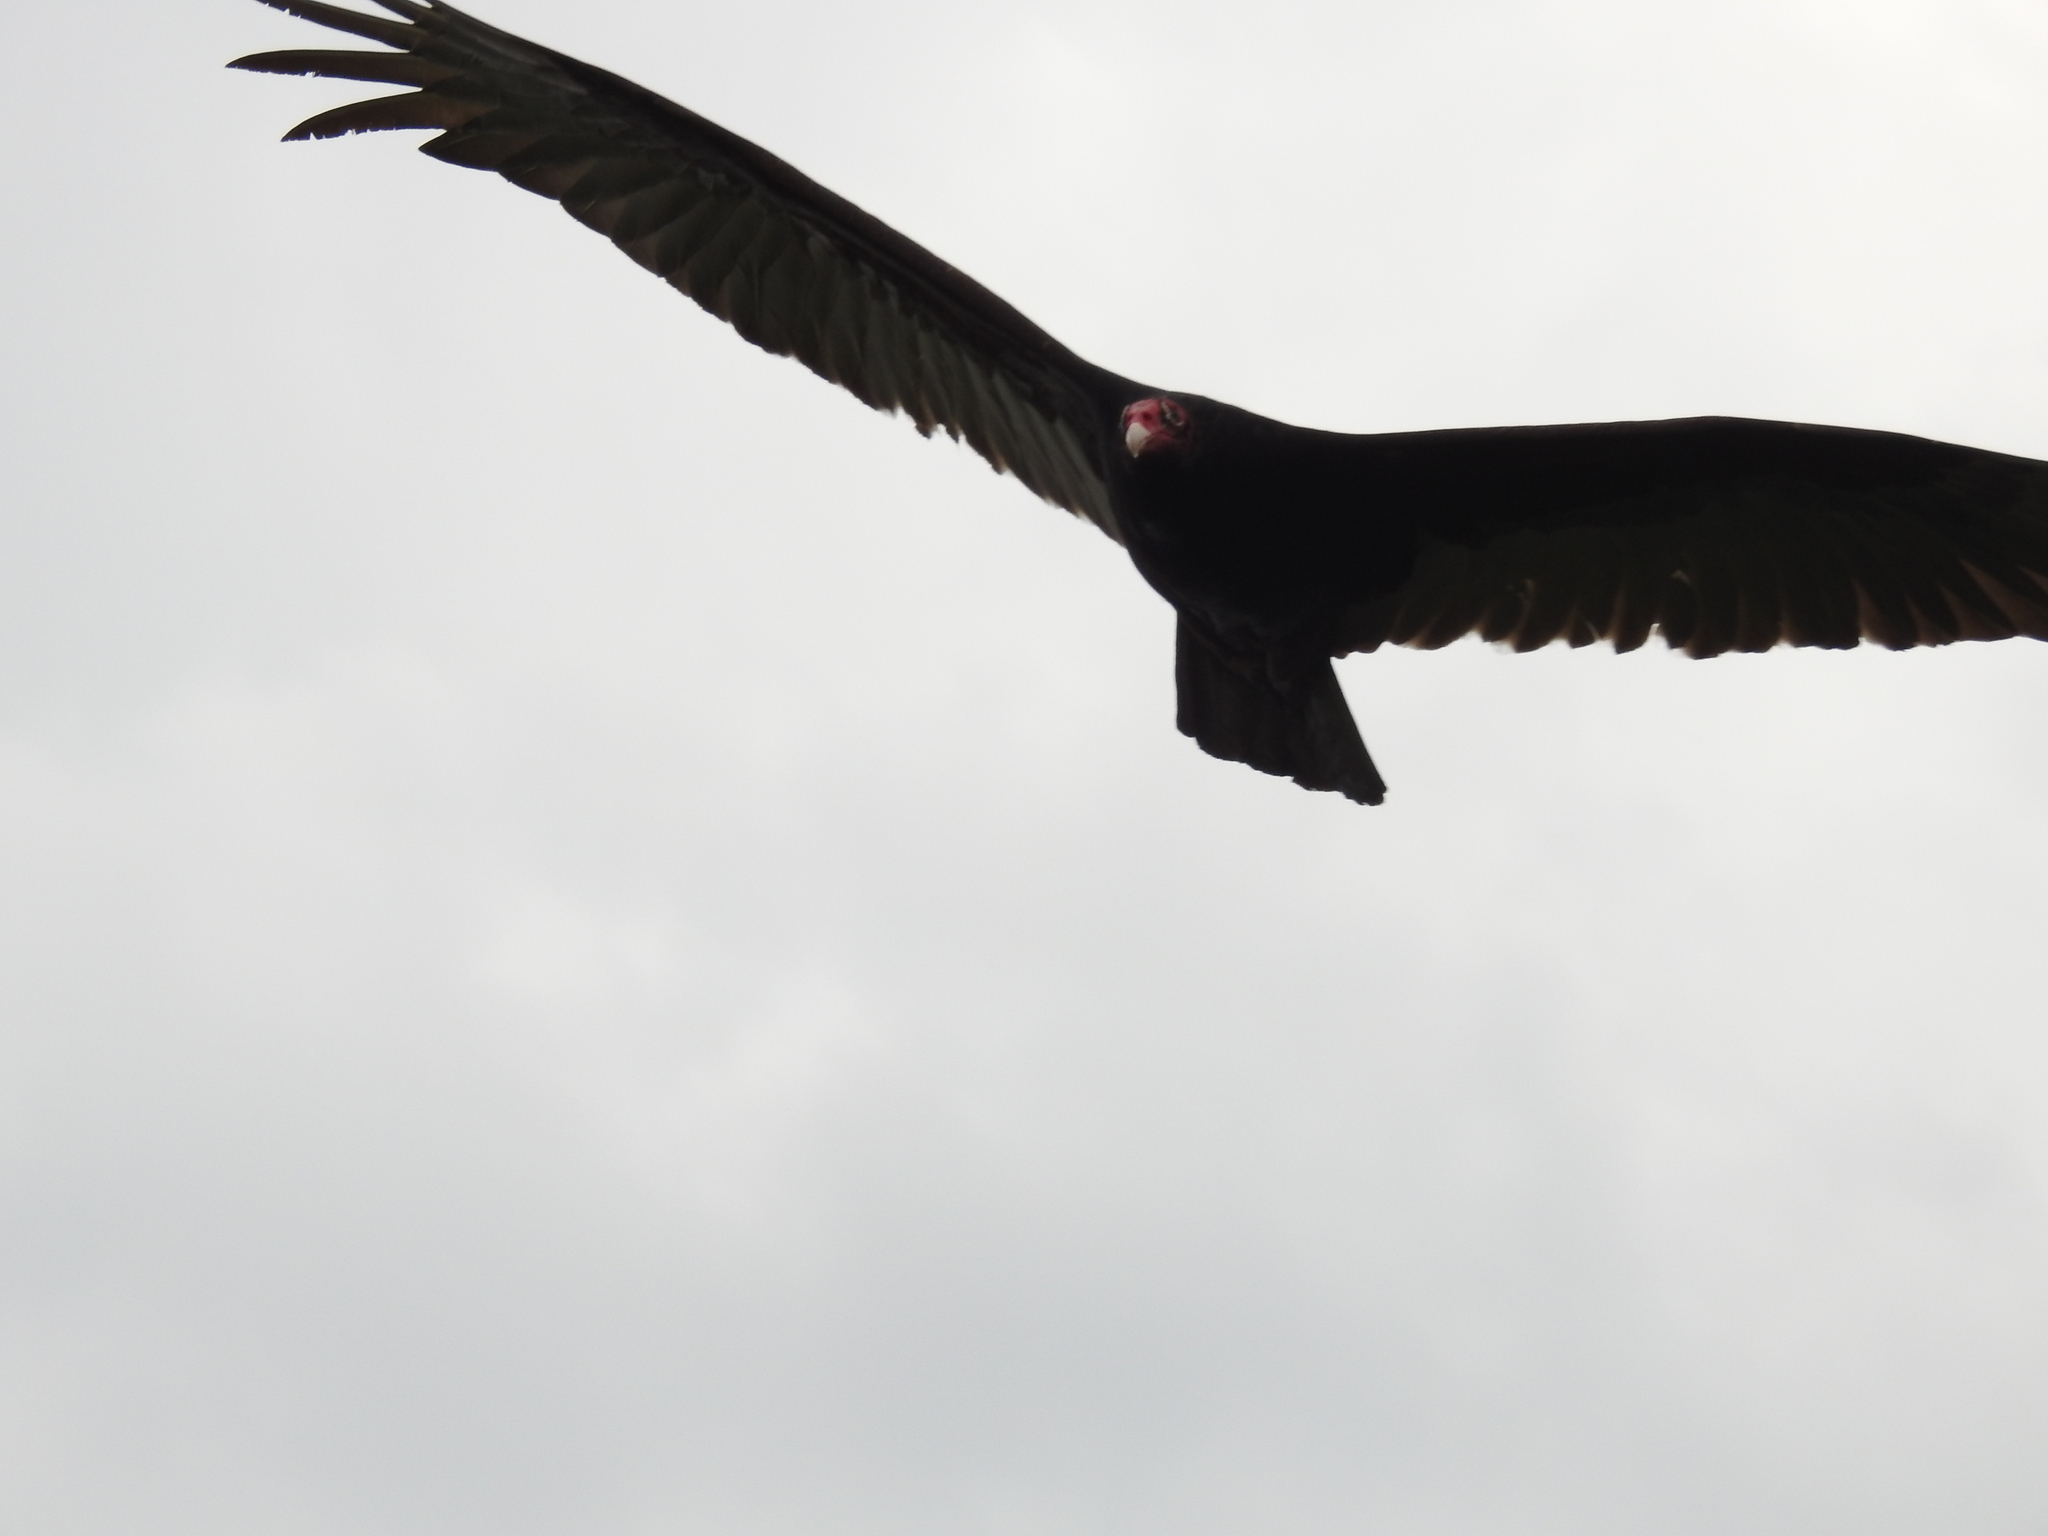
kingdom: Animalia
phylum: Chordata
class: Aves
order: Accipitriformes
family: Cathartidae
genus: Cathartes
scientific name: Cathartes aura
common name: Turkey vulture
